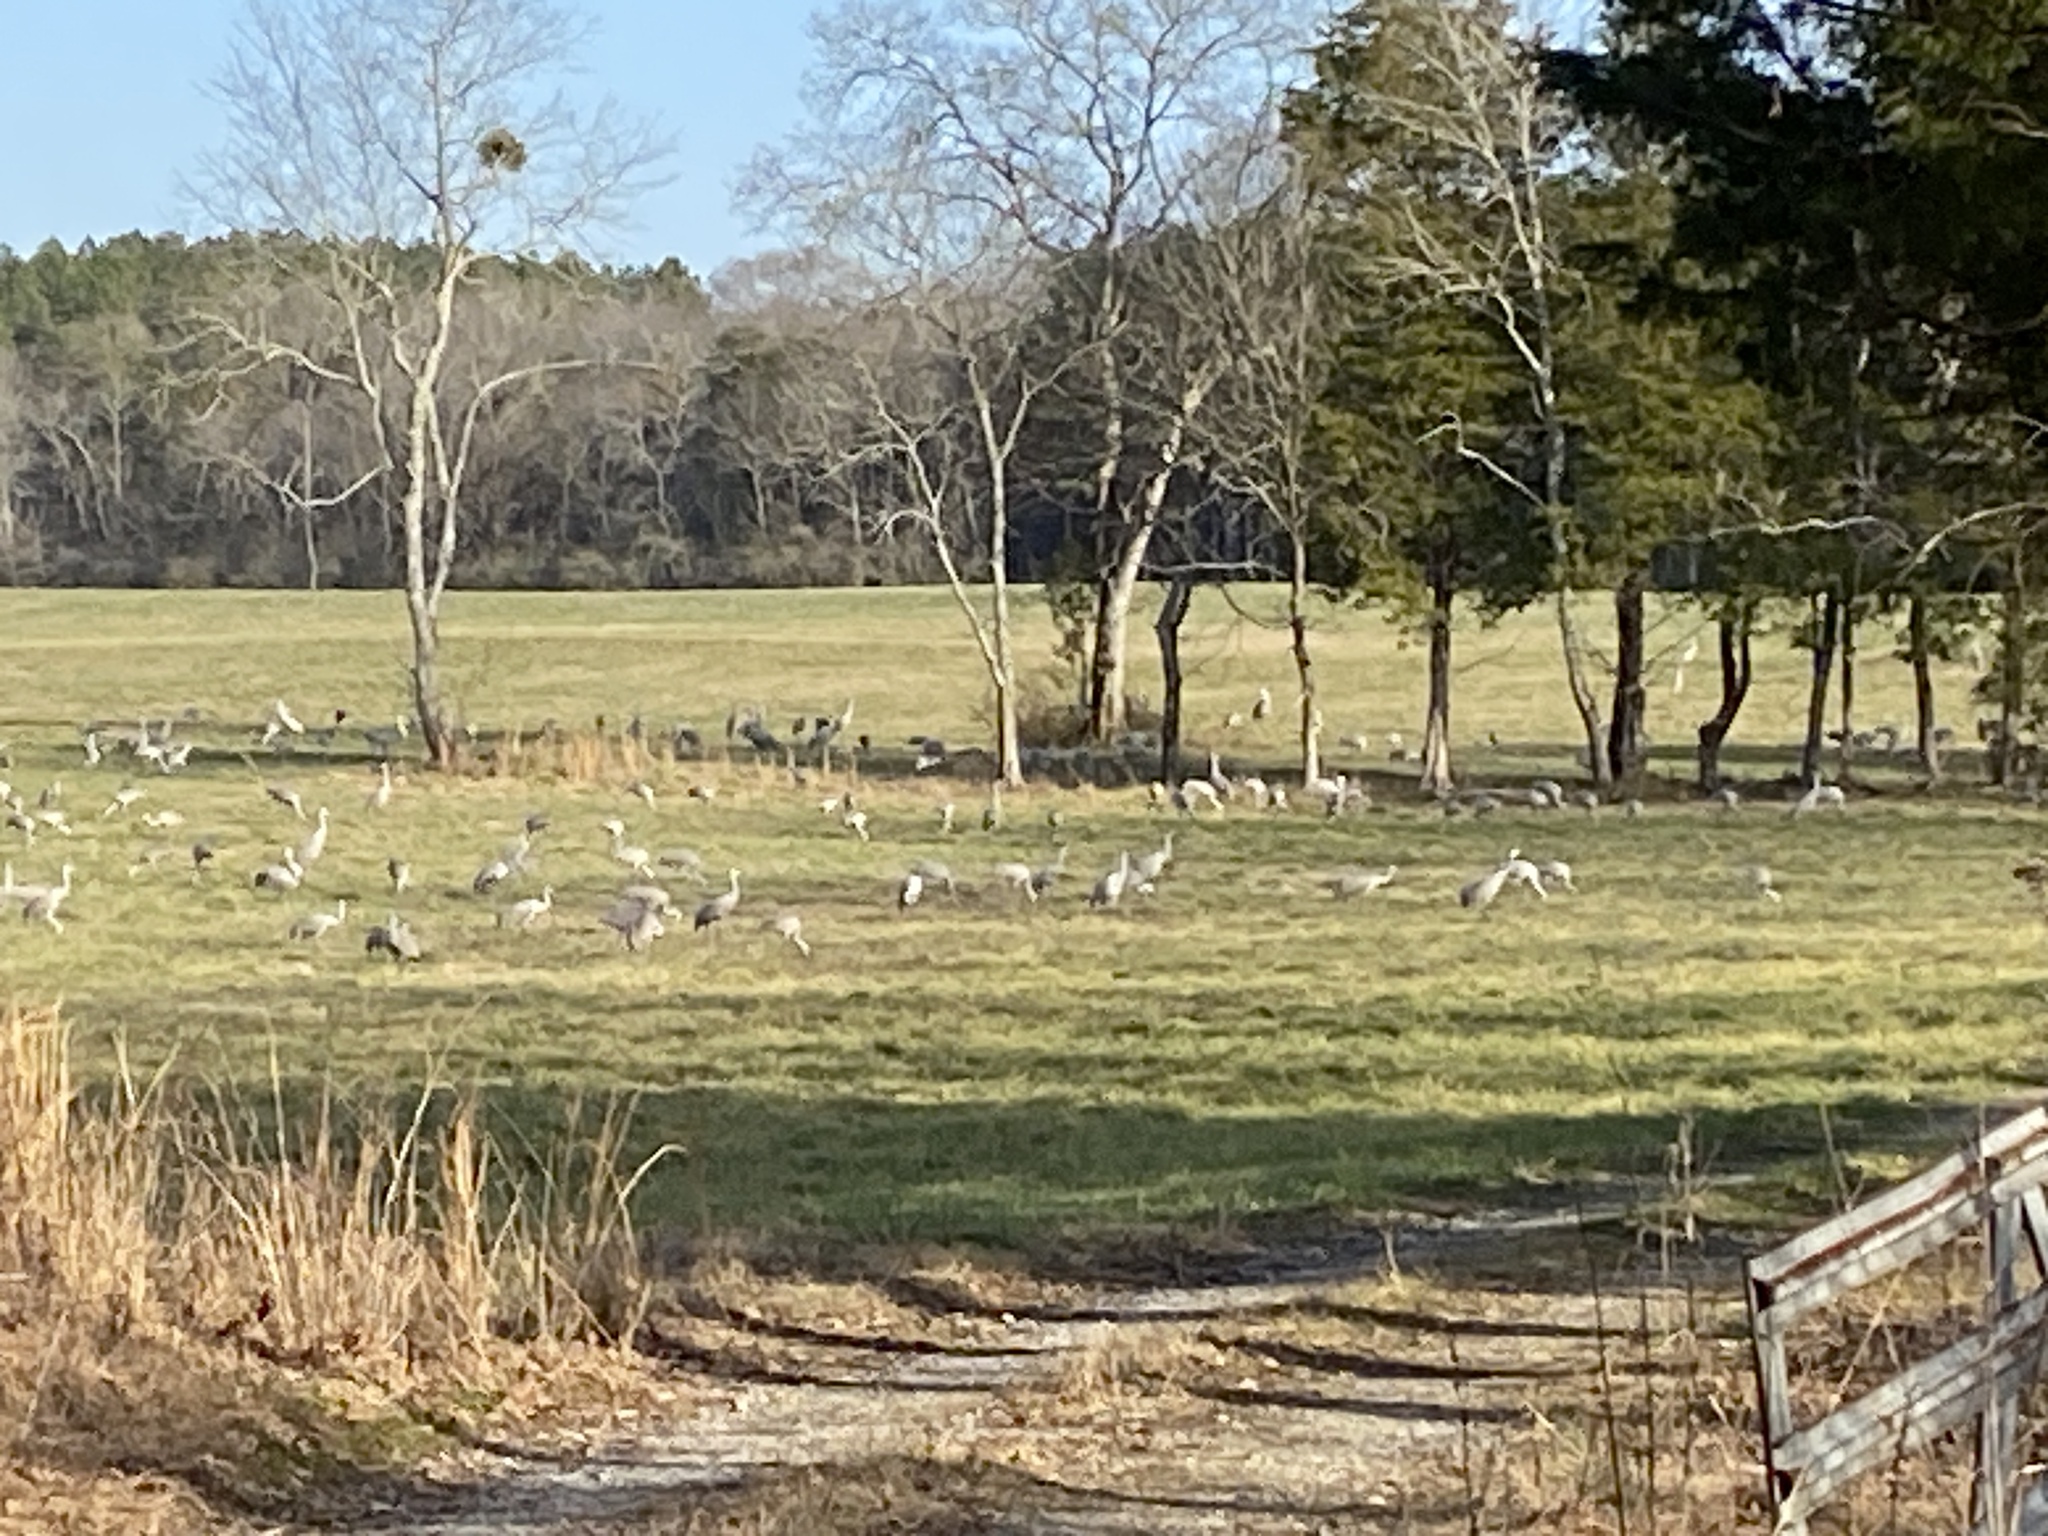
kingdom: Animalia
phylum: Chordata
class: Aves
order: Gruiformes
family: Gruidae
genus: Grus
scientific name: Grus canadensis
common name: Sandhill crane
